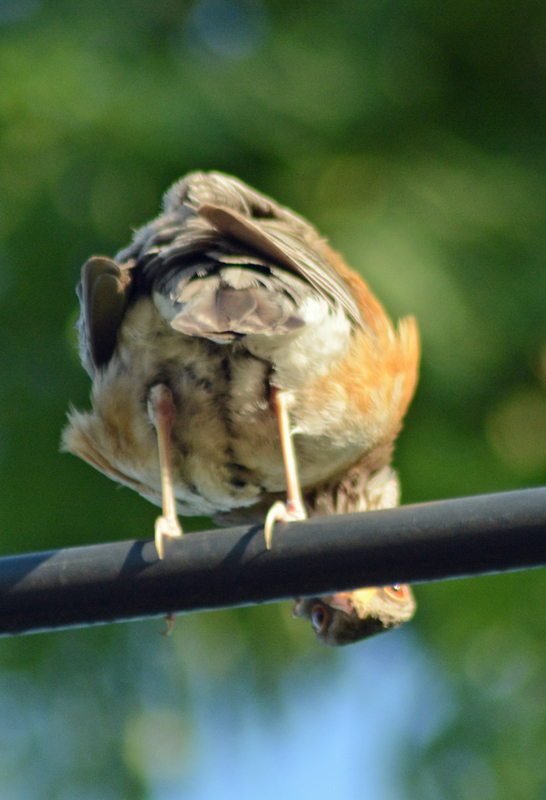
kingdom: Animalia
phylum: Chordata
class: Aves
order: Passeriformes
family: Turdidae
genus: Turdus
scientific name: Turdus rufopalliatus
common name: Rufous-backed robin
